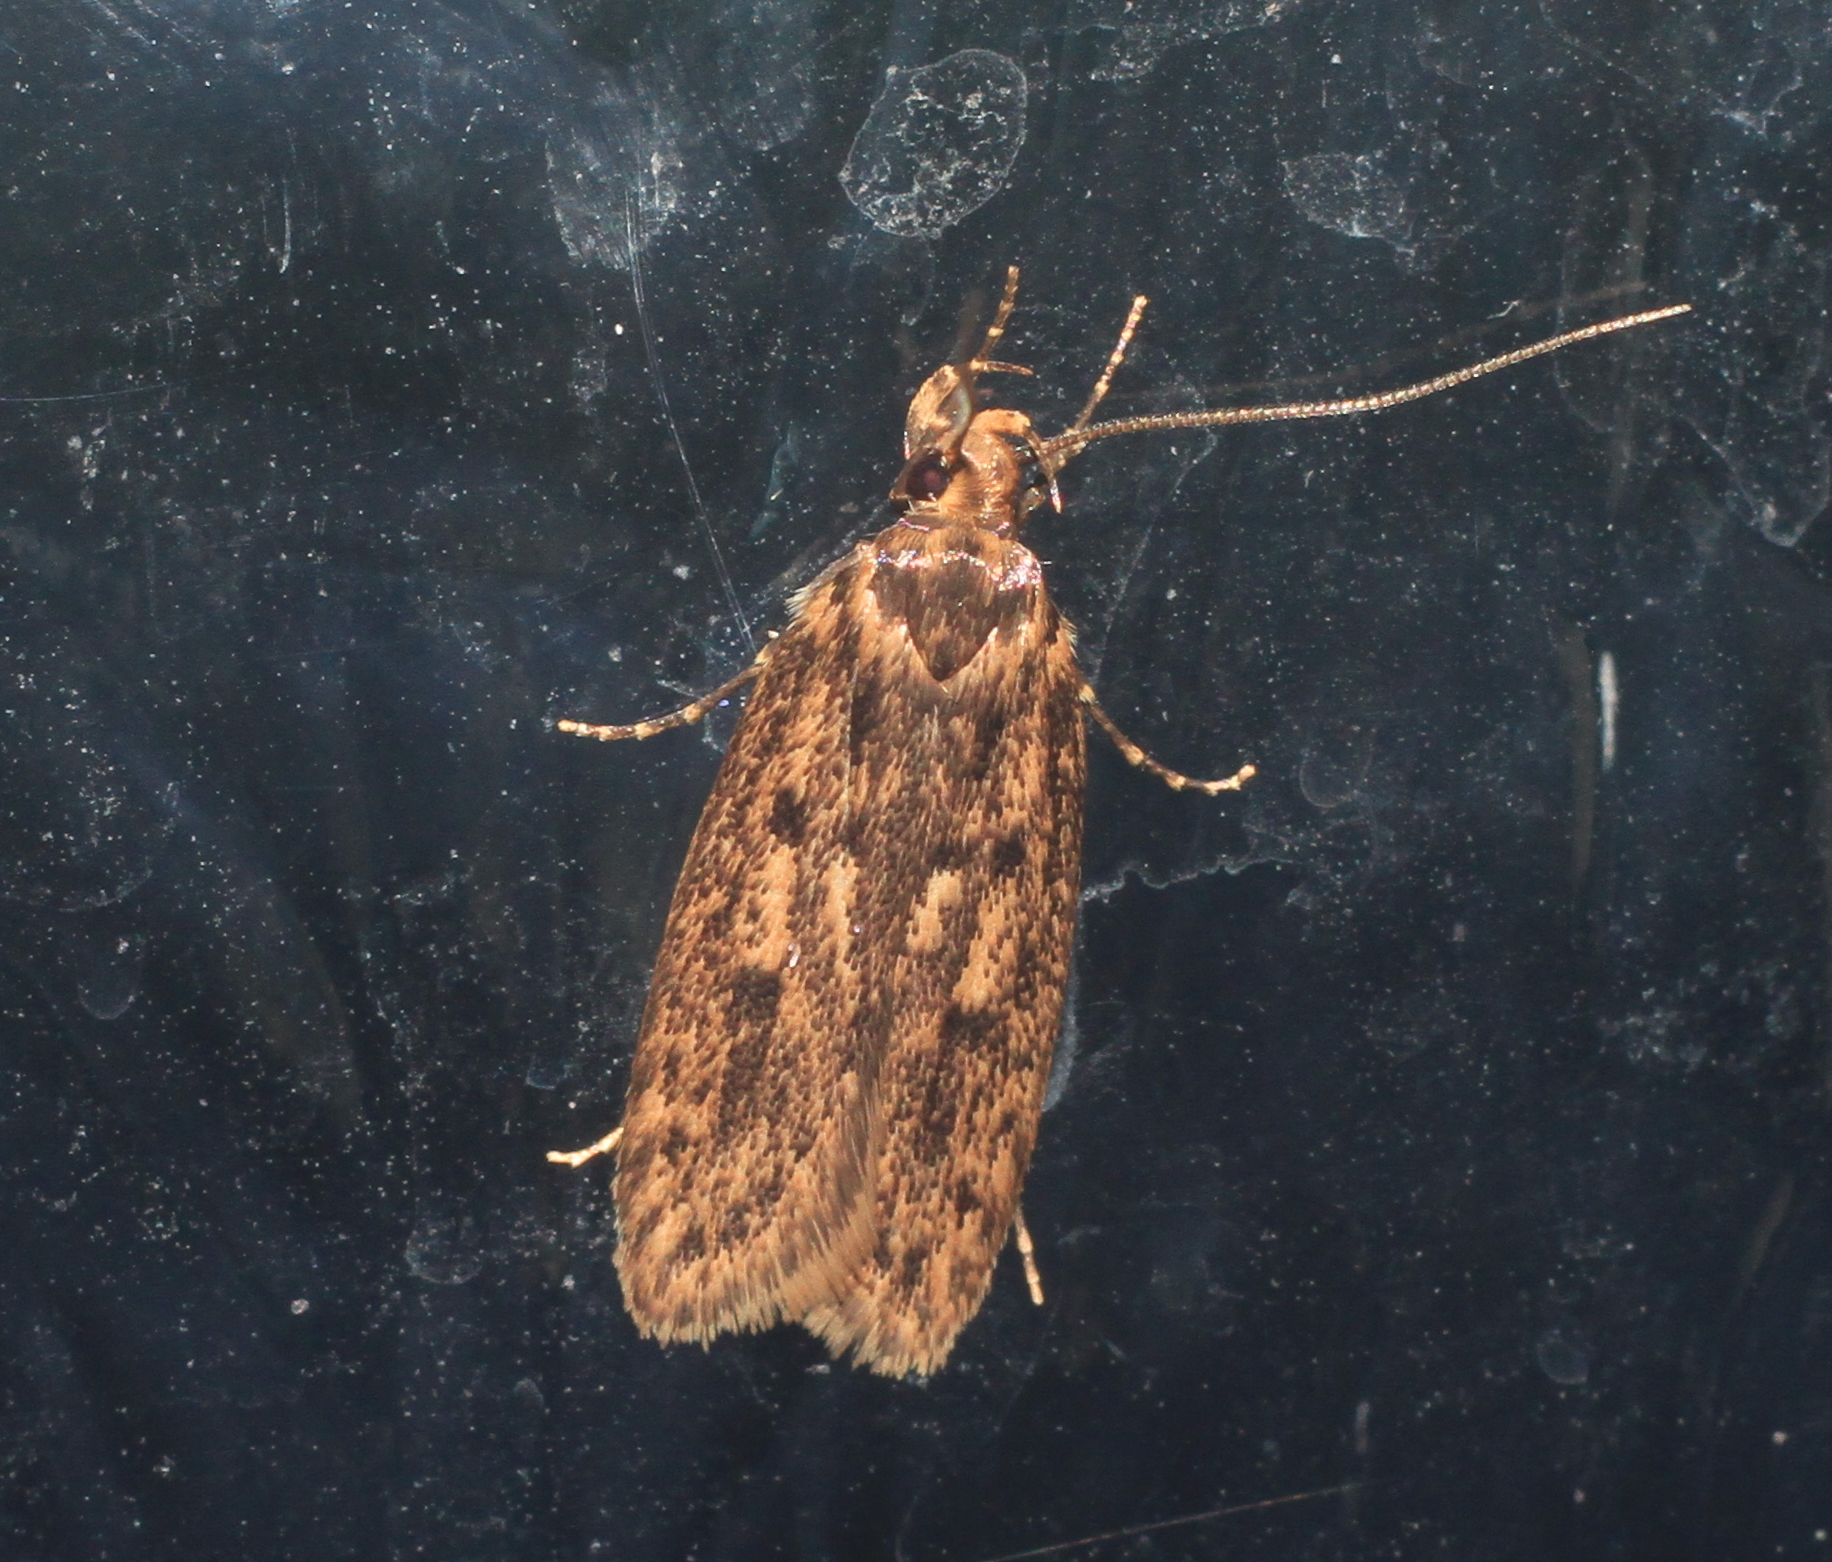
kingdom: Animalia
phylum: Arthropoda
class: Insecta
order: Lepidoptera
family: Oecophoridae
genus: Hofmannophila
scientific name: Hofmannophila pseudospretella
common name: Brown house moth
